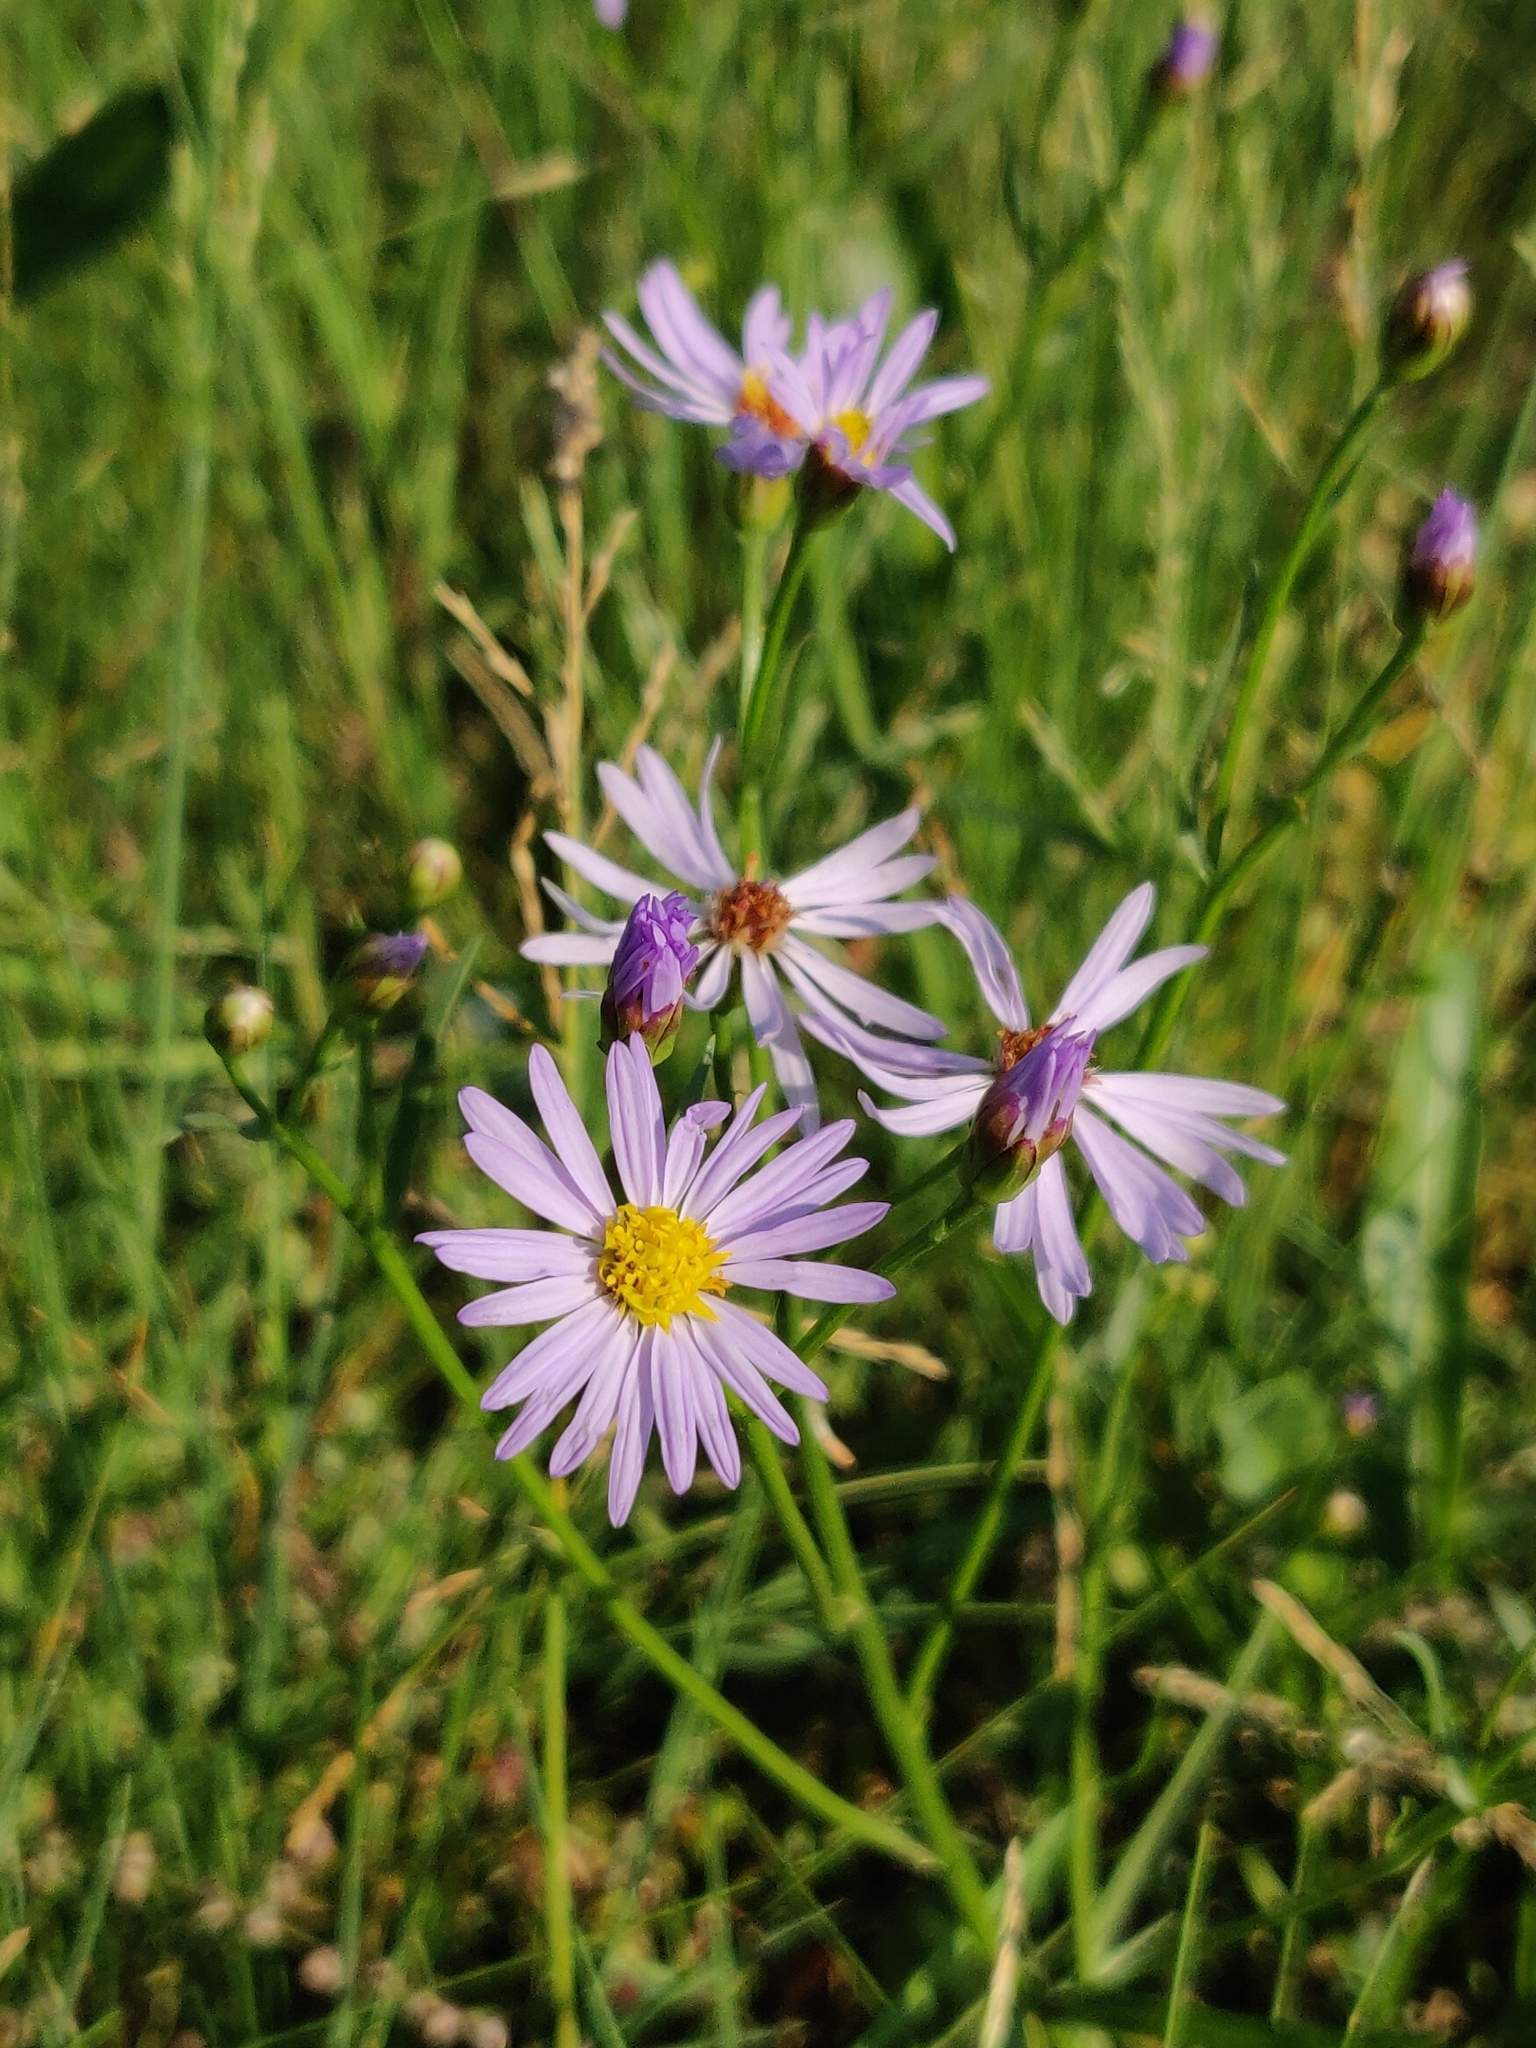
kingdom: Plantae
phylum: Tracheophyta
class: Magnoliopsida
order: Asterales
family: Asteraceae
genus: Tripolium
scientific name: Tripolium pannonicum
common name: Sea aster
